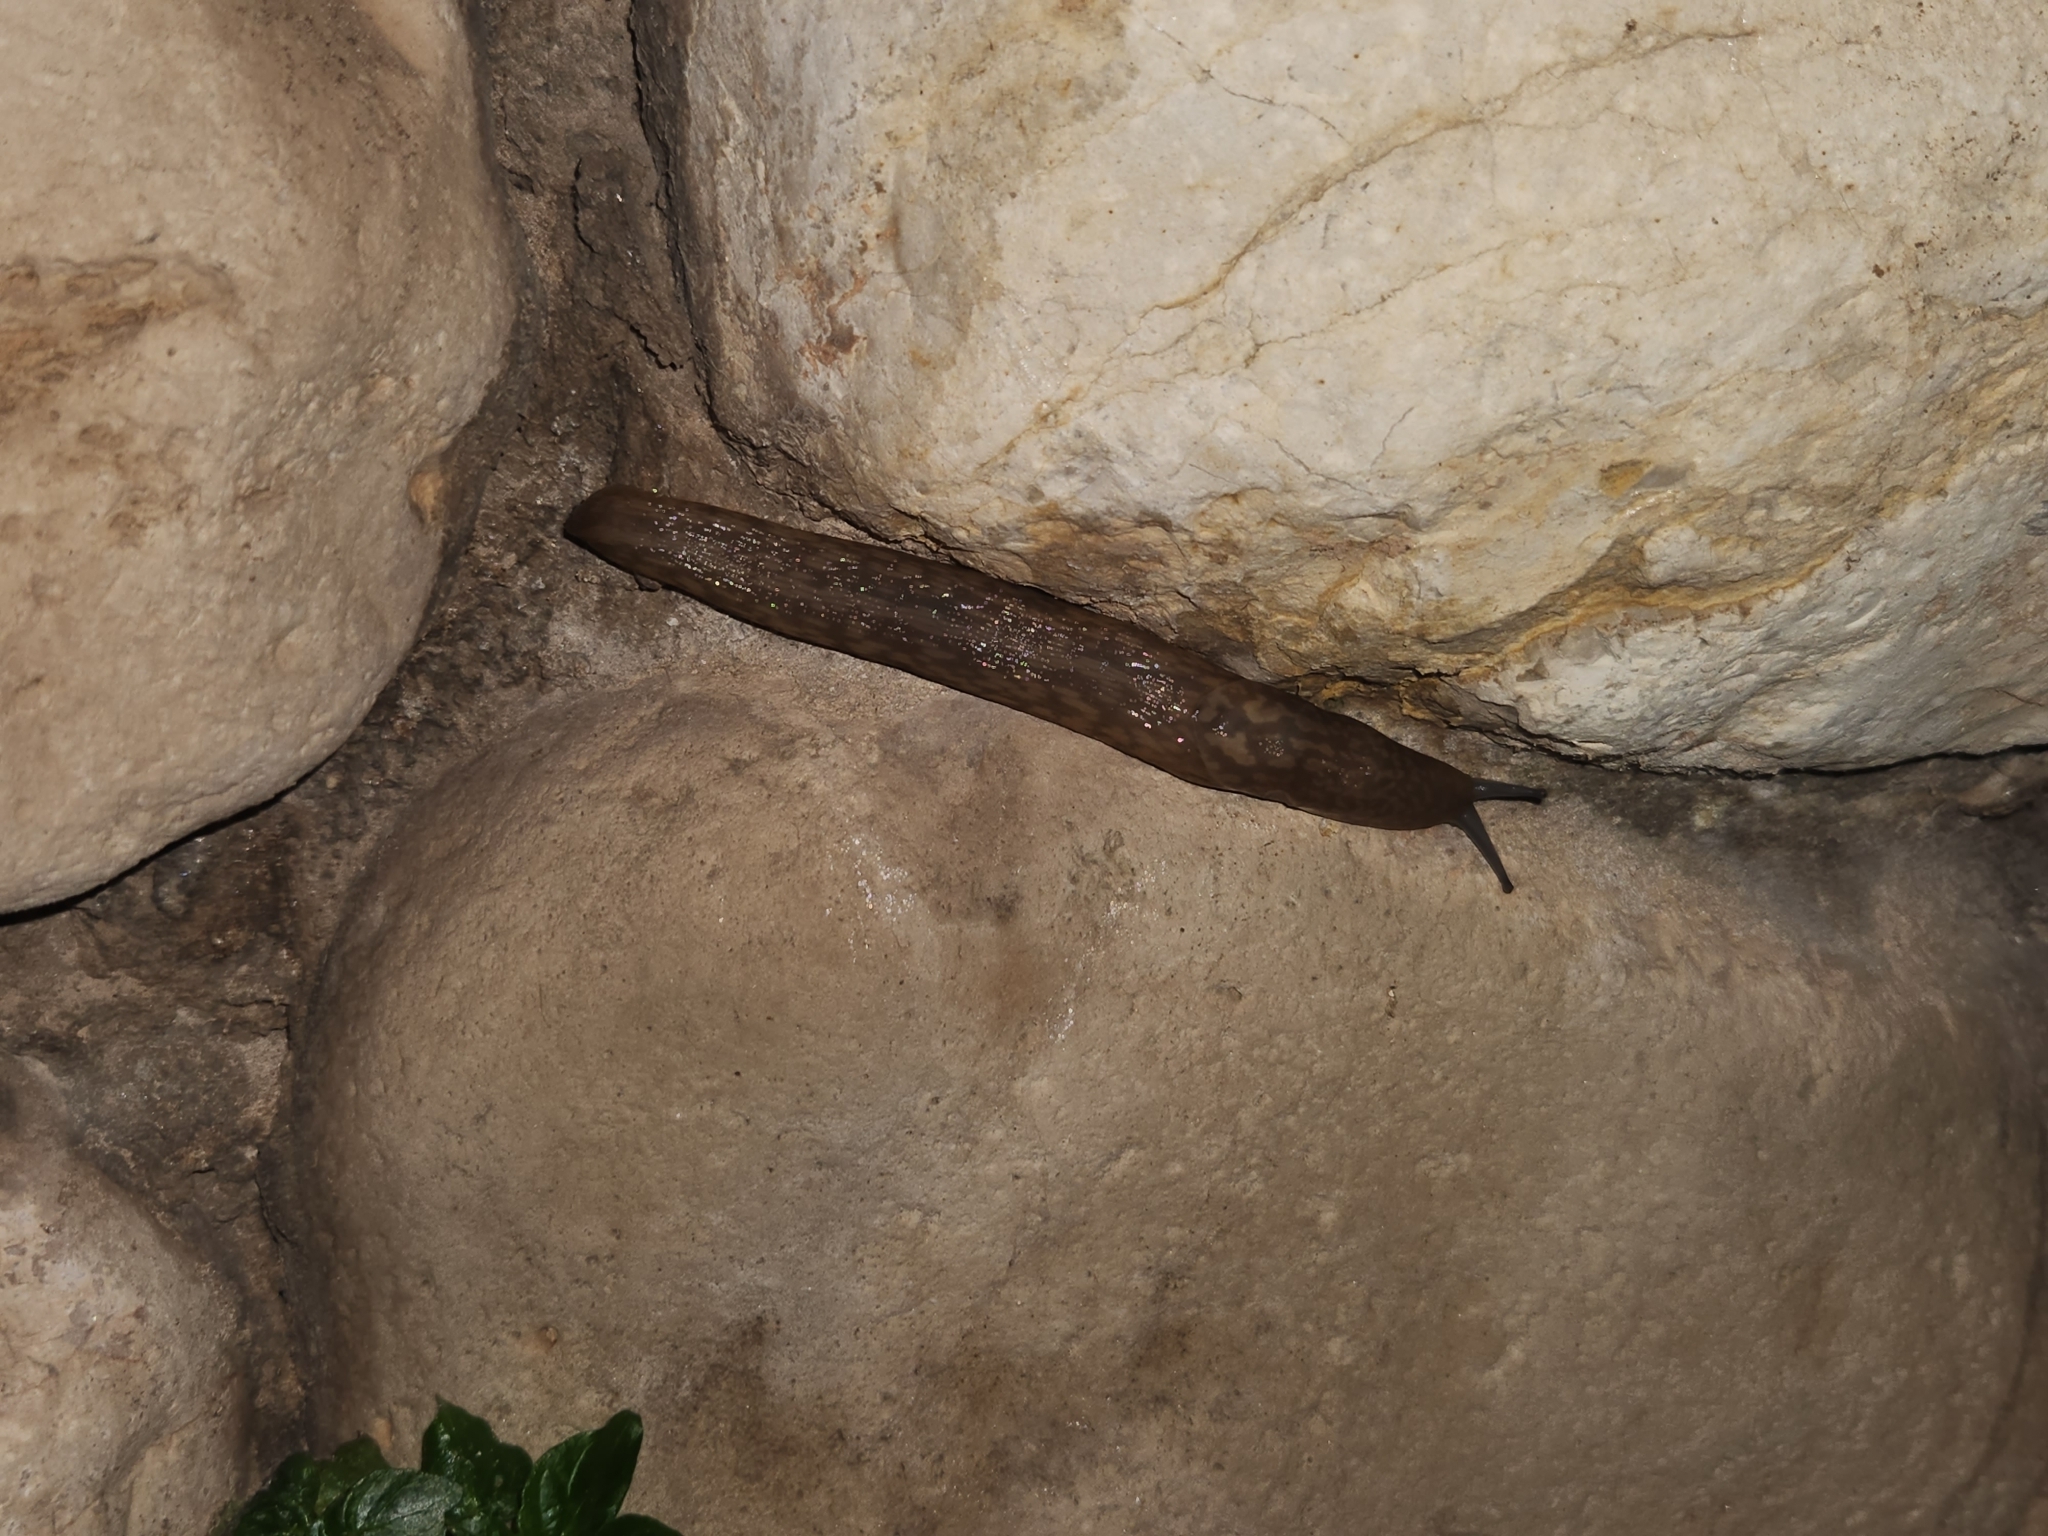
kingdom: Animalia
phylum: Mollusca
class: Gastropoda
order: Stylommatophora
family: Limacidae
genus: Limacus
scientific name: Limacus flavus
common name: Yellow gardenslug
